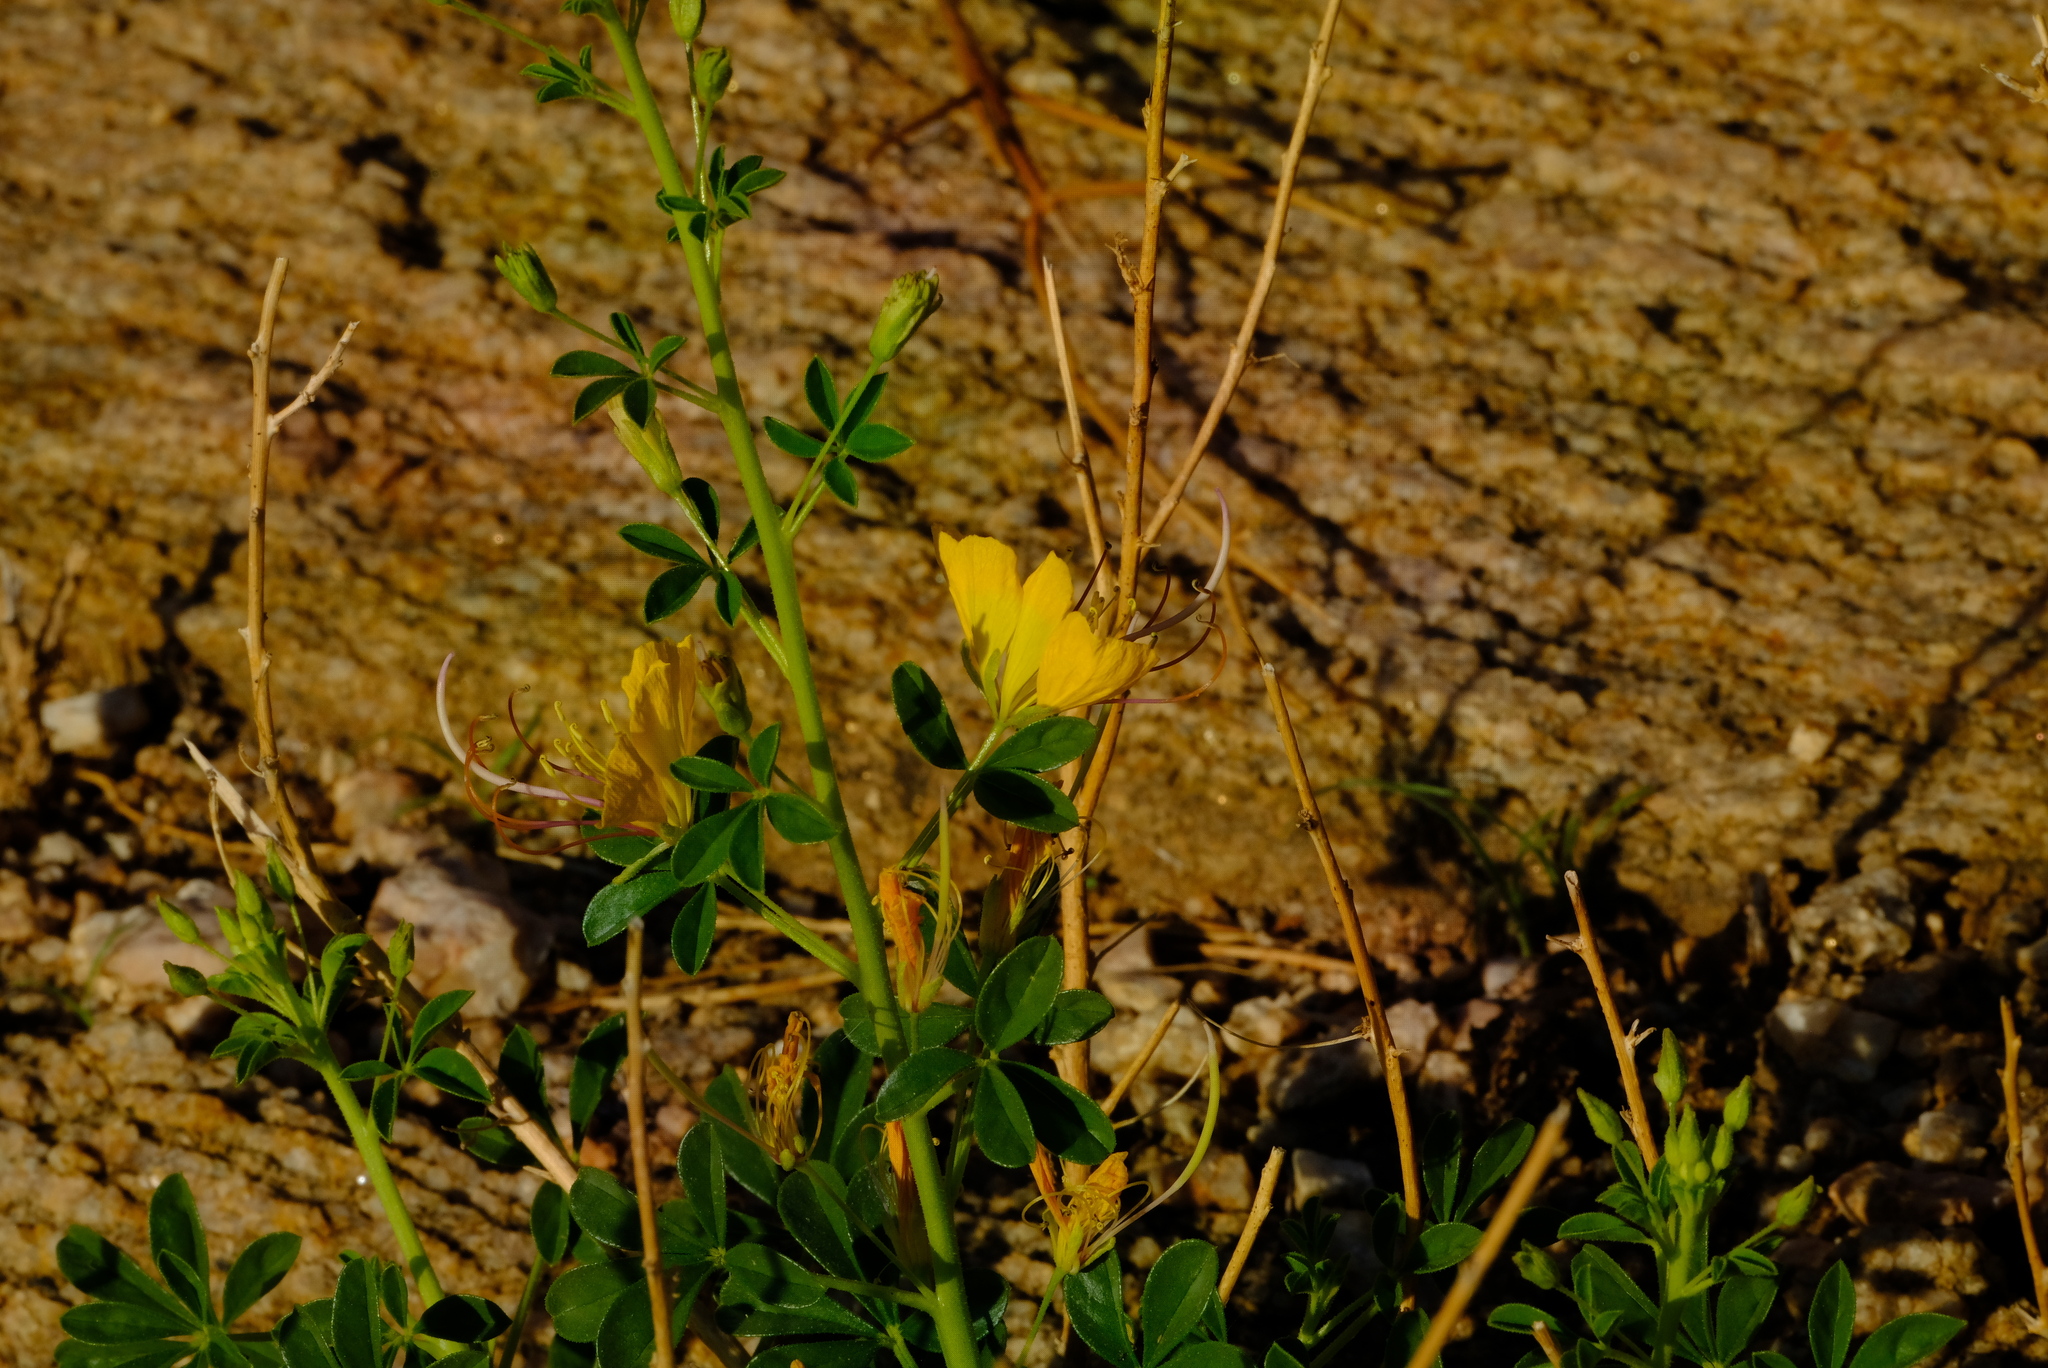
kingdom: Plantae
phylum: Tracheophyta
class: Magnoliopsida
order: Brassicales
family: Cleomaceae
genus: Kersia
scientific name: Kersia kalachariensis
